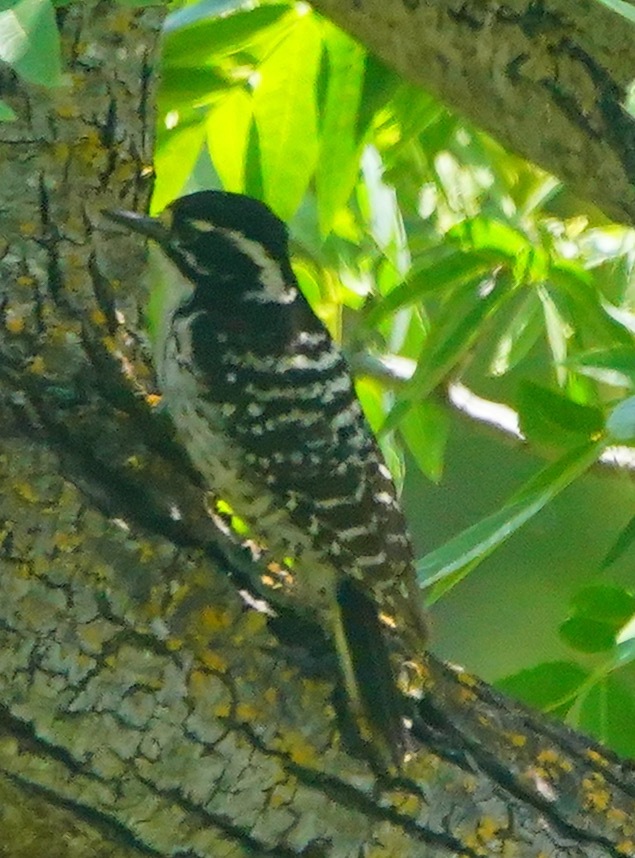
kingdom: Animalia
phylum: Chordata
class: Aves
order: Piciformes
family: Picidae
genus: Dryobates
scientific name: Dryobates nuttallii
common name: Nuttall's woodpecker
